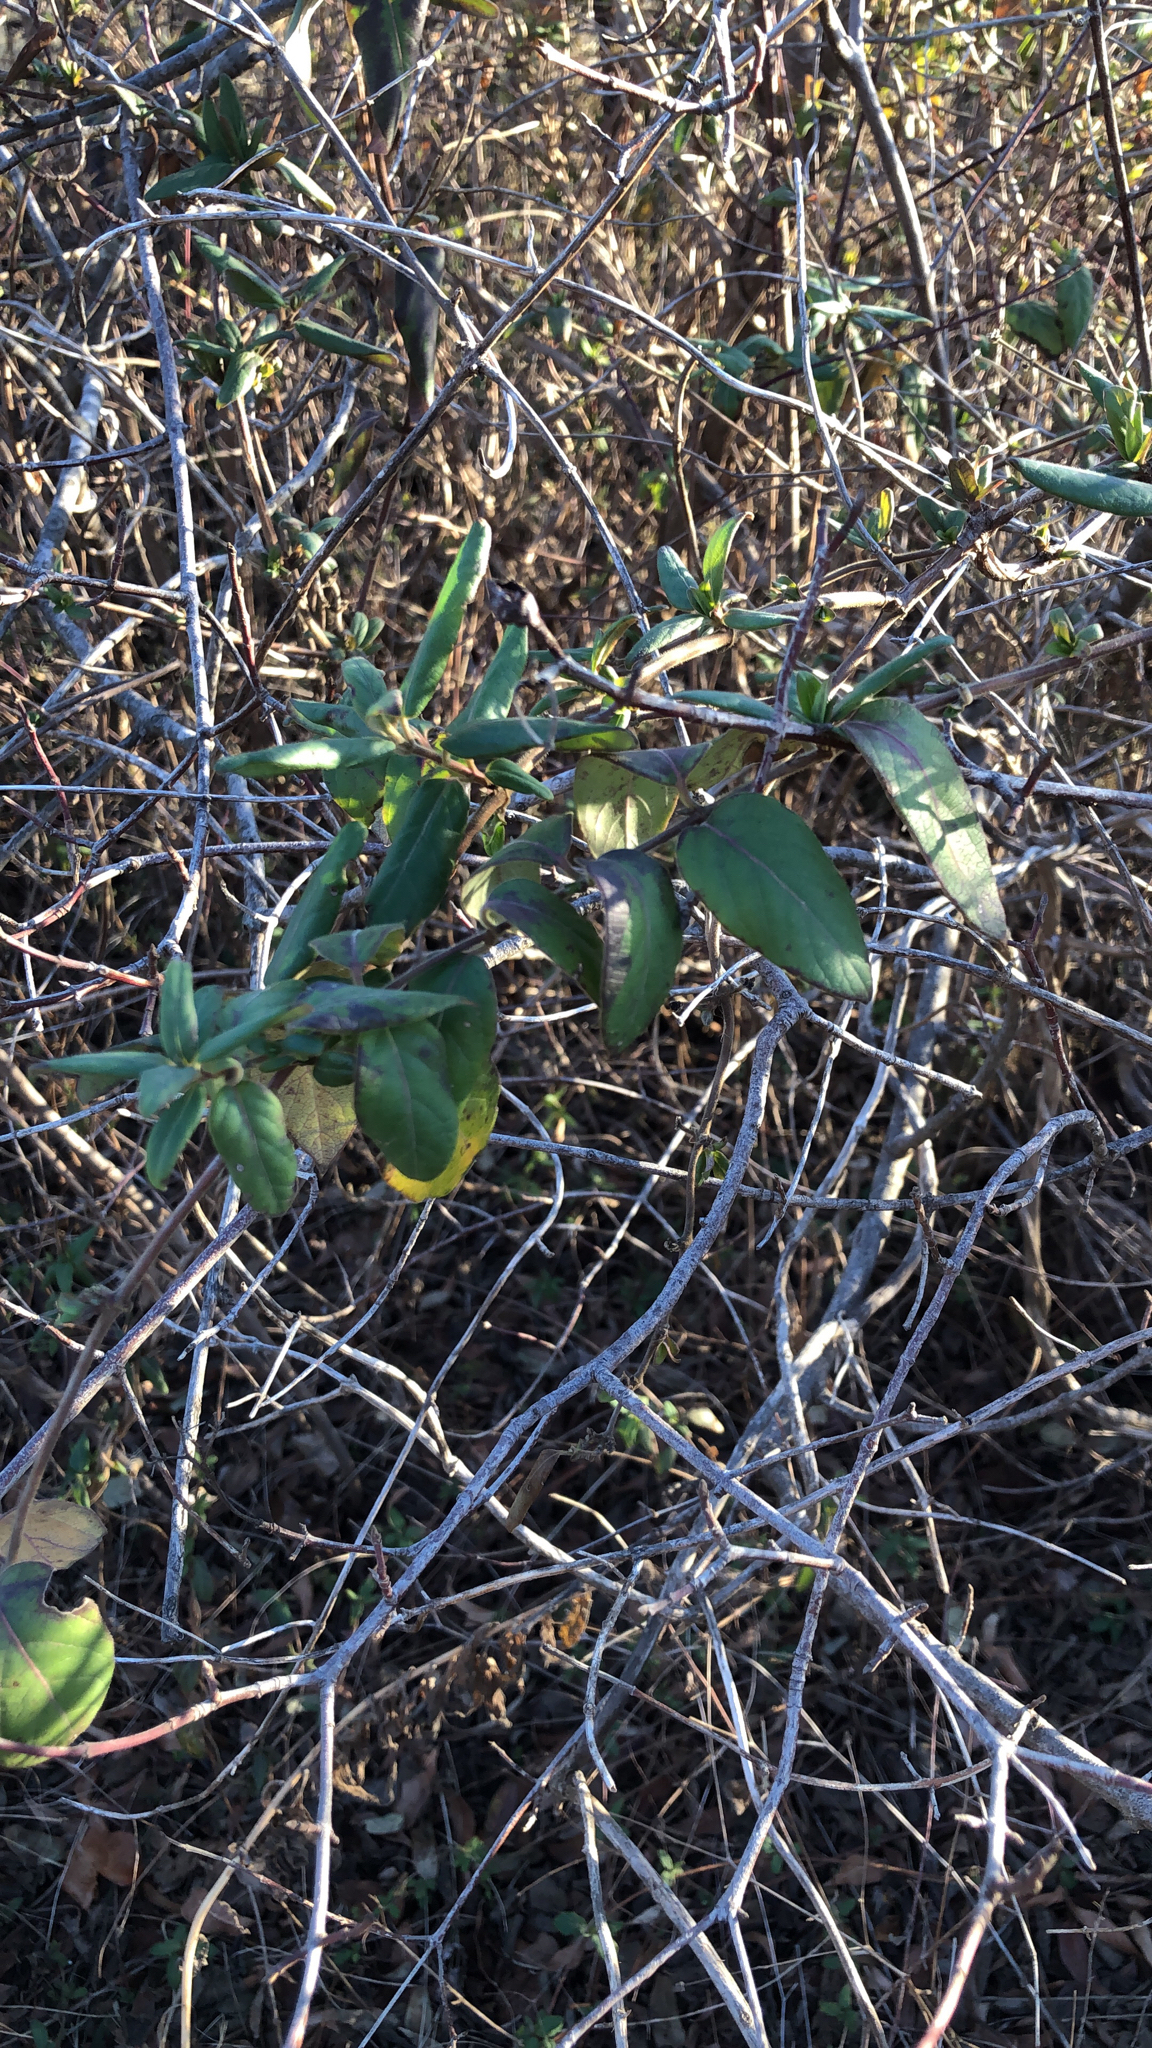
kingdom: Plantae
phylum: Tracheophyta
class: Magnoliopsida
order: Dipsacales
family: Caprifoliaceae
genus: Lonicera
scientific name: Lonicera japonica
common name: Japanese honeysuckle
